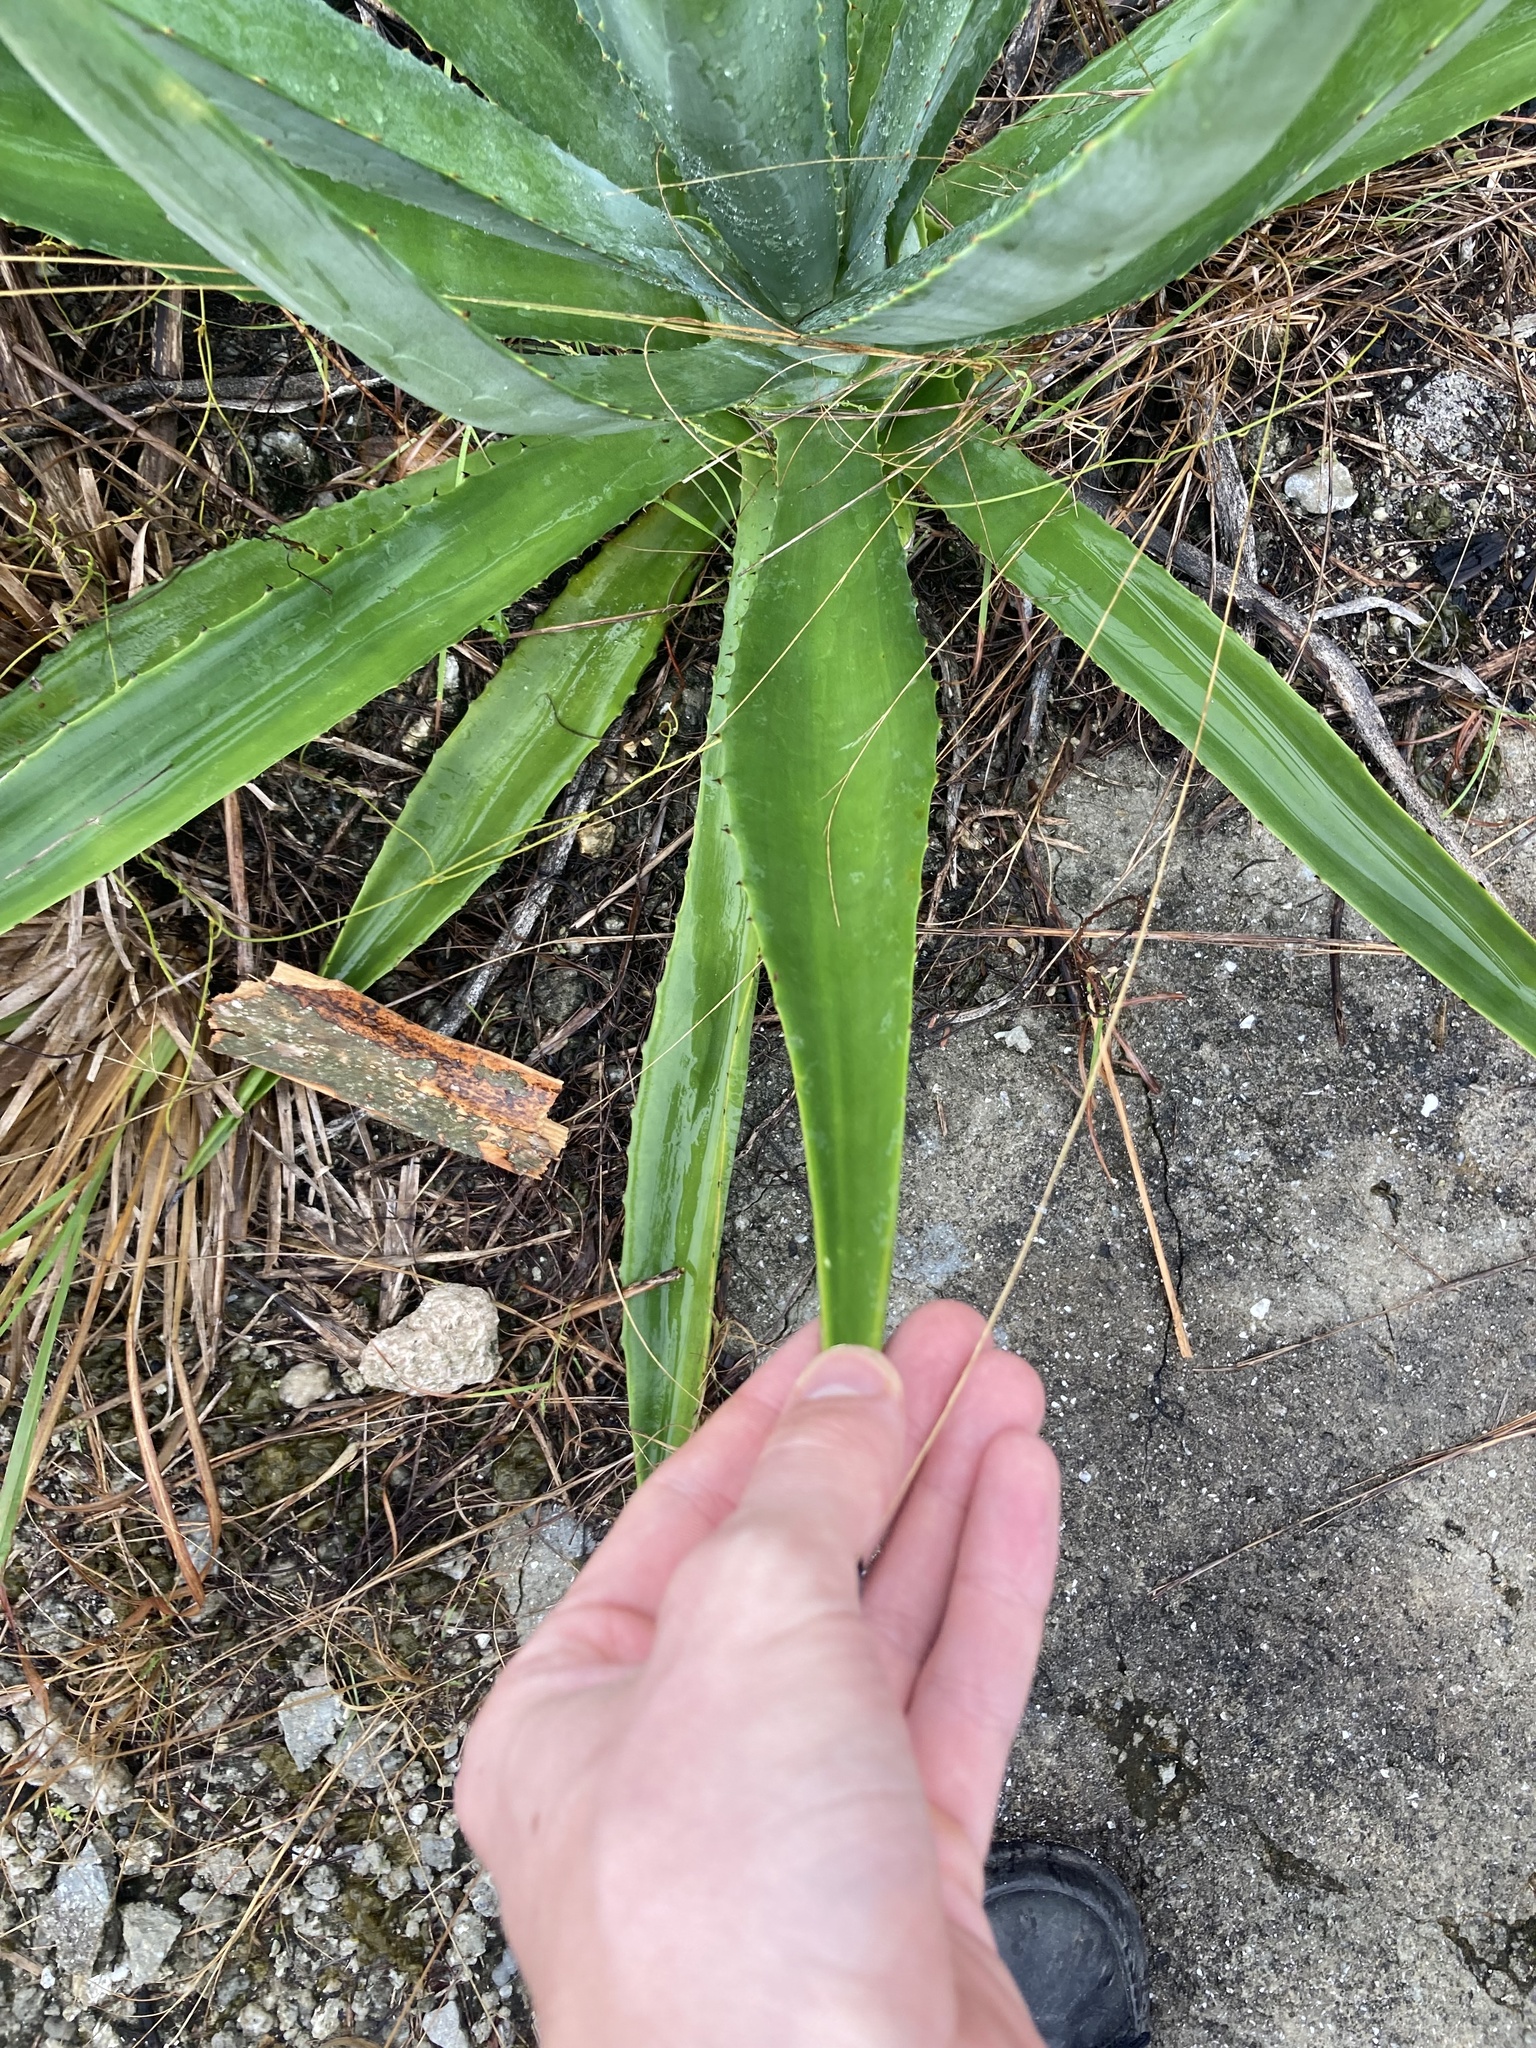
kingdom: Plantae
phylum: Tracheophyta
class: Liliopsida
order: Asparagales
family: Asparagaceae
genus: Agave
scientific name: Agave decipiens
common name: False sisal
